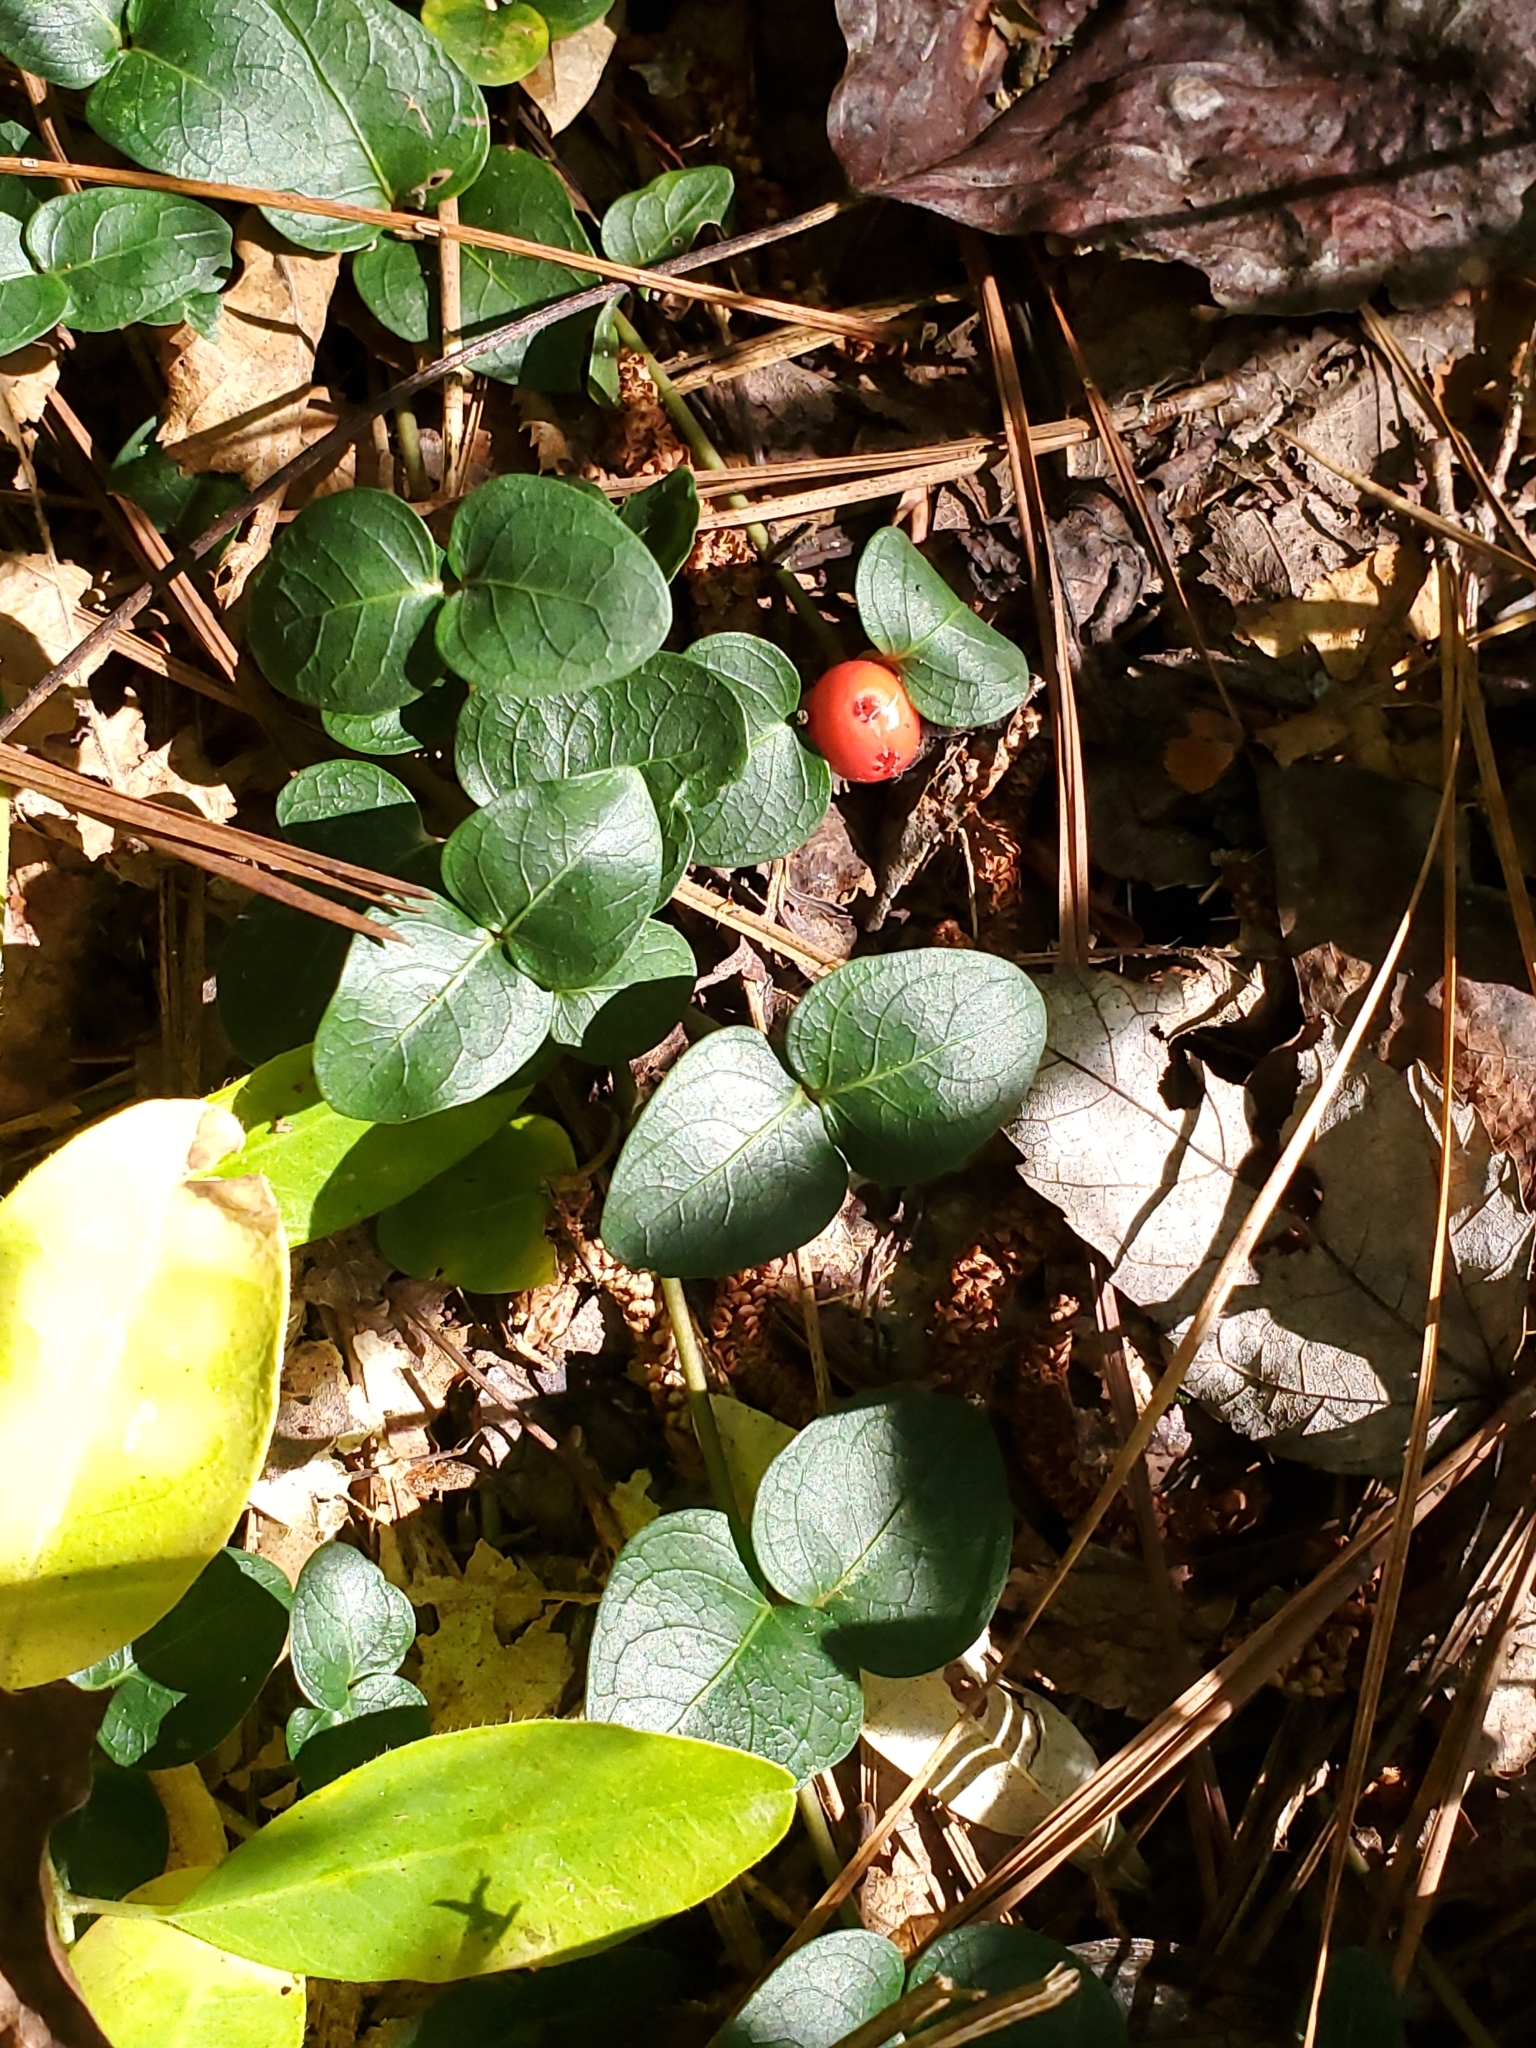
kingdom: Plantae
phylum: Tracheophyta
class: Magnoliopsida
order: Gentianales
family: Rubiaceae
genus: Mitchella
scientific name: Mitchella repens
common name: Partridge-berry
